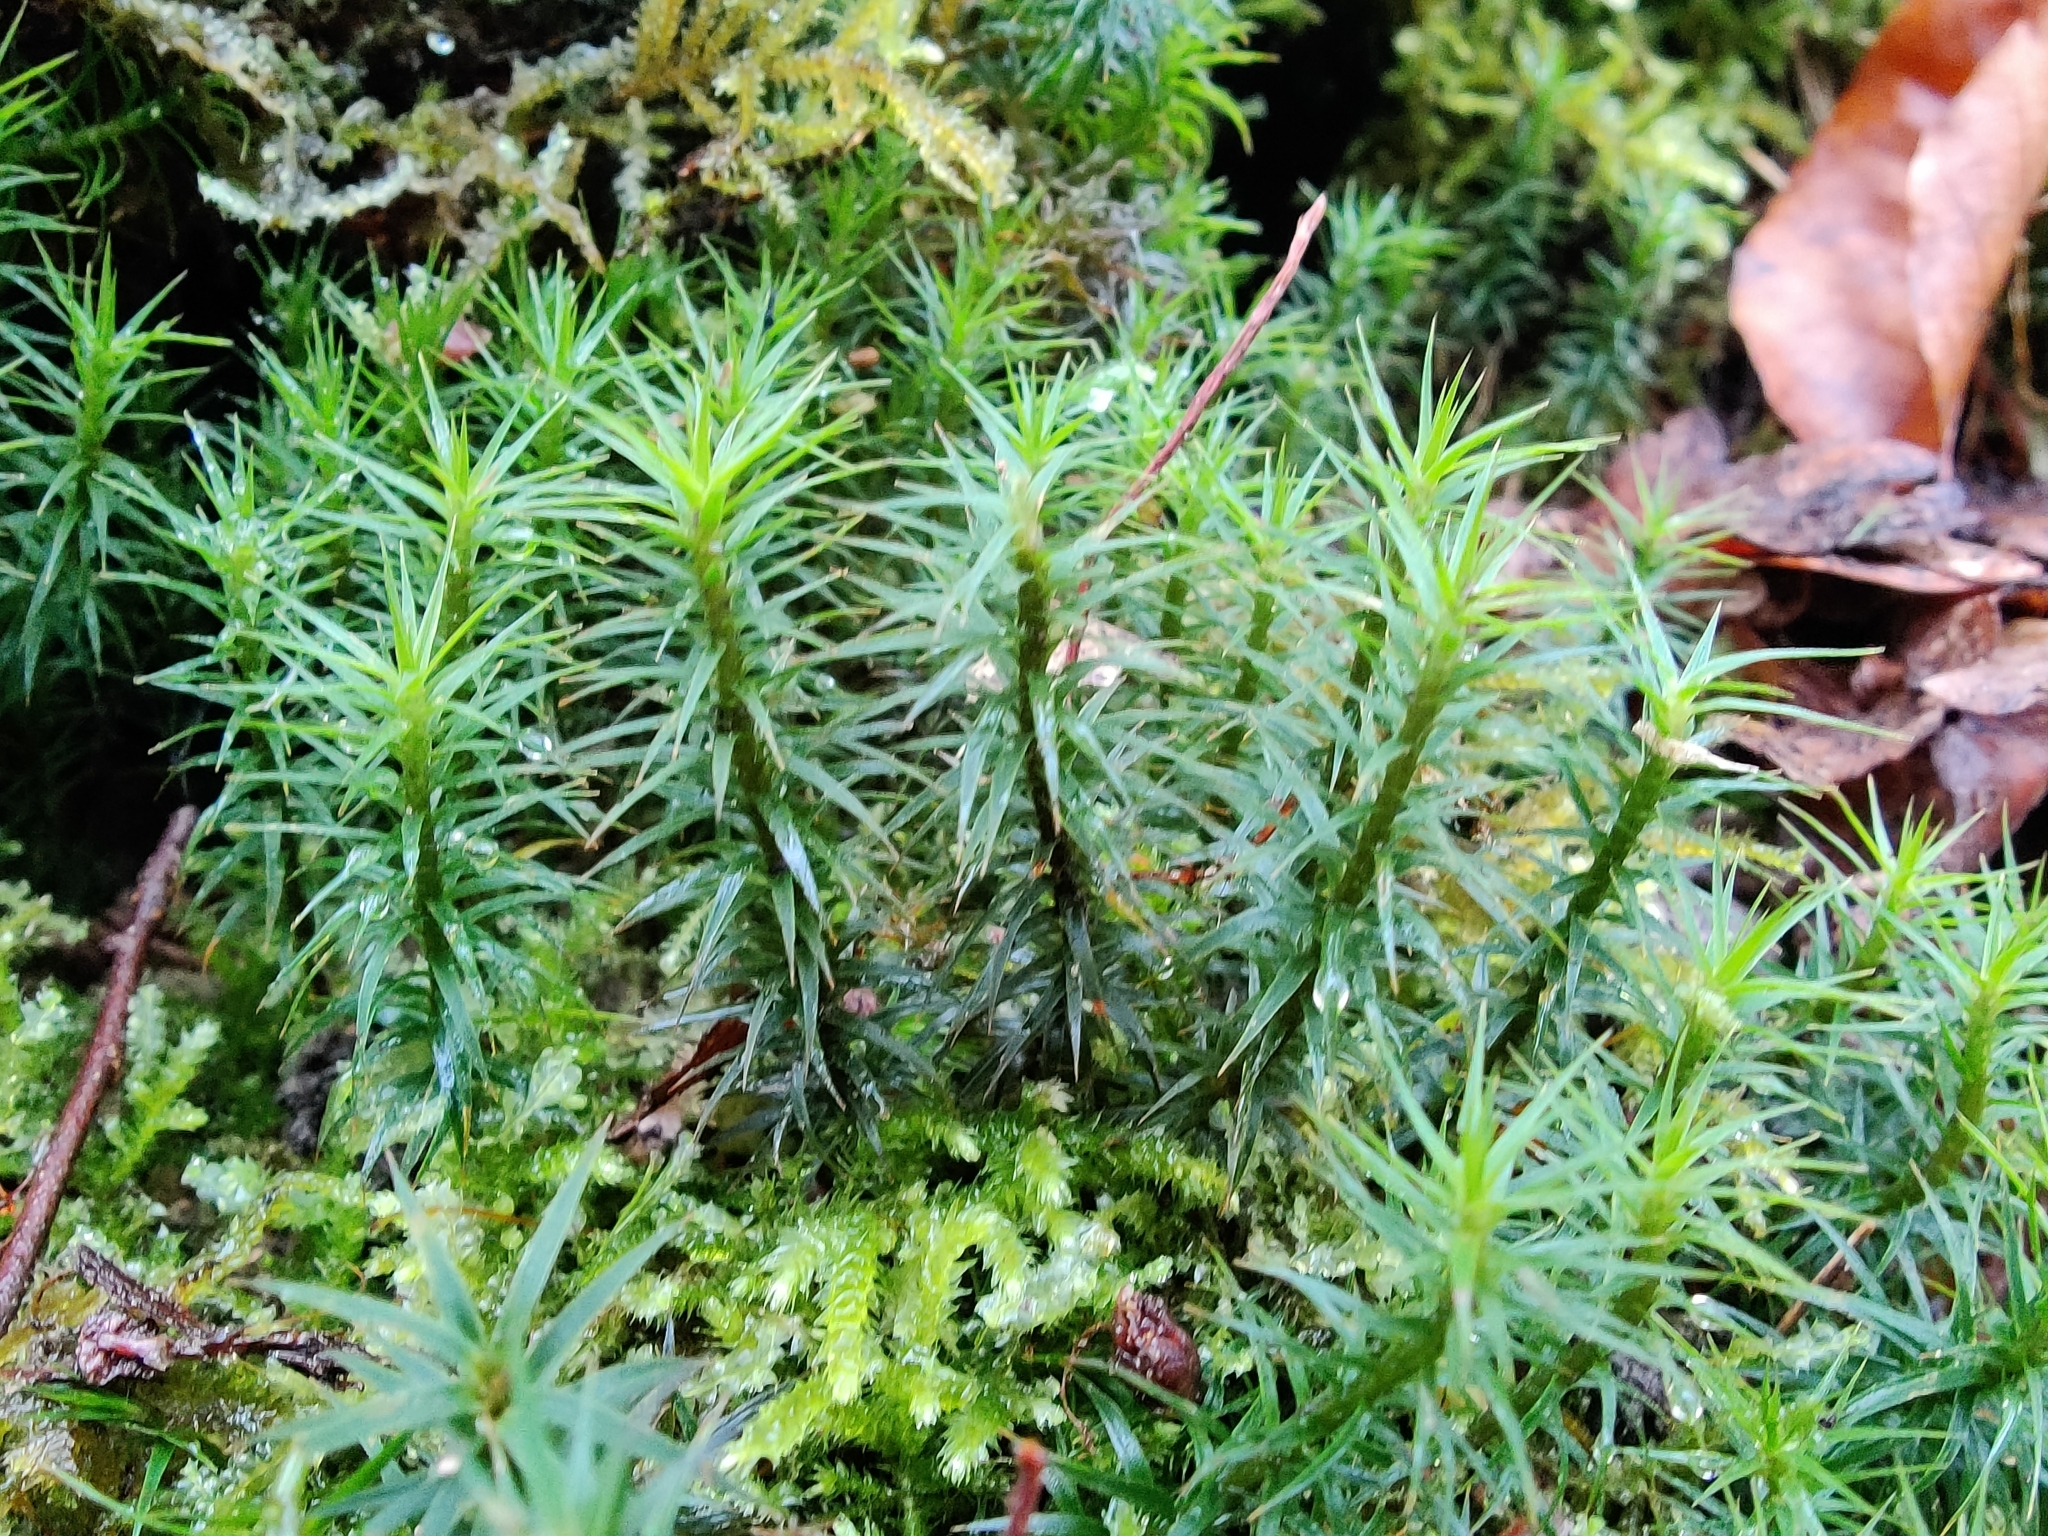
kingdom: Plantae
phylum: Bryophyta
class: Polytrichopsida
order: Polytrichales
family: Polytrichaceae
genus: Polytrichum
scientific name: Polytrichum formosum
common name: Bank haircap moss
